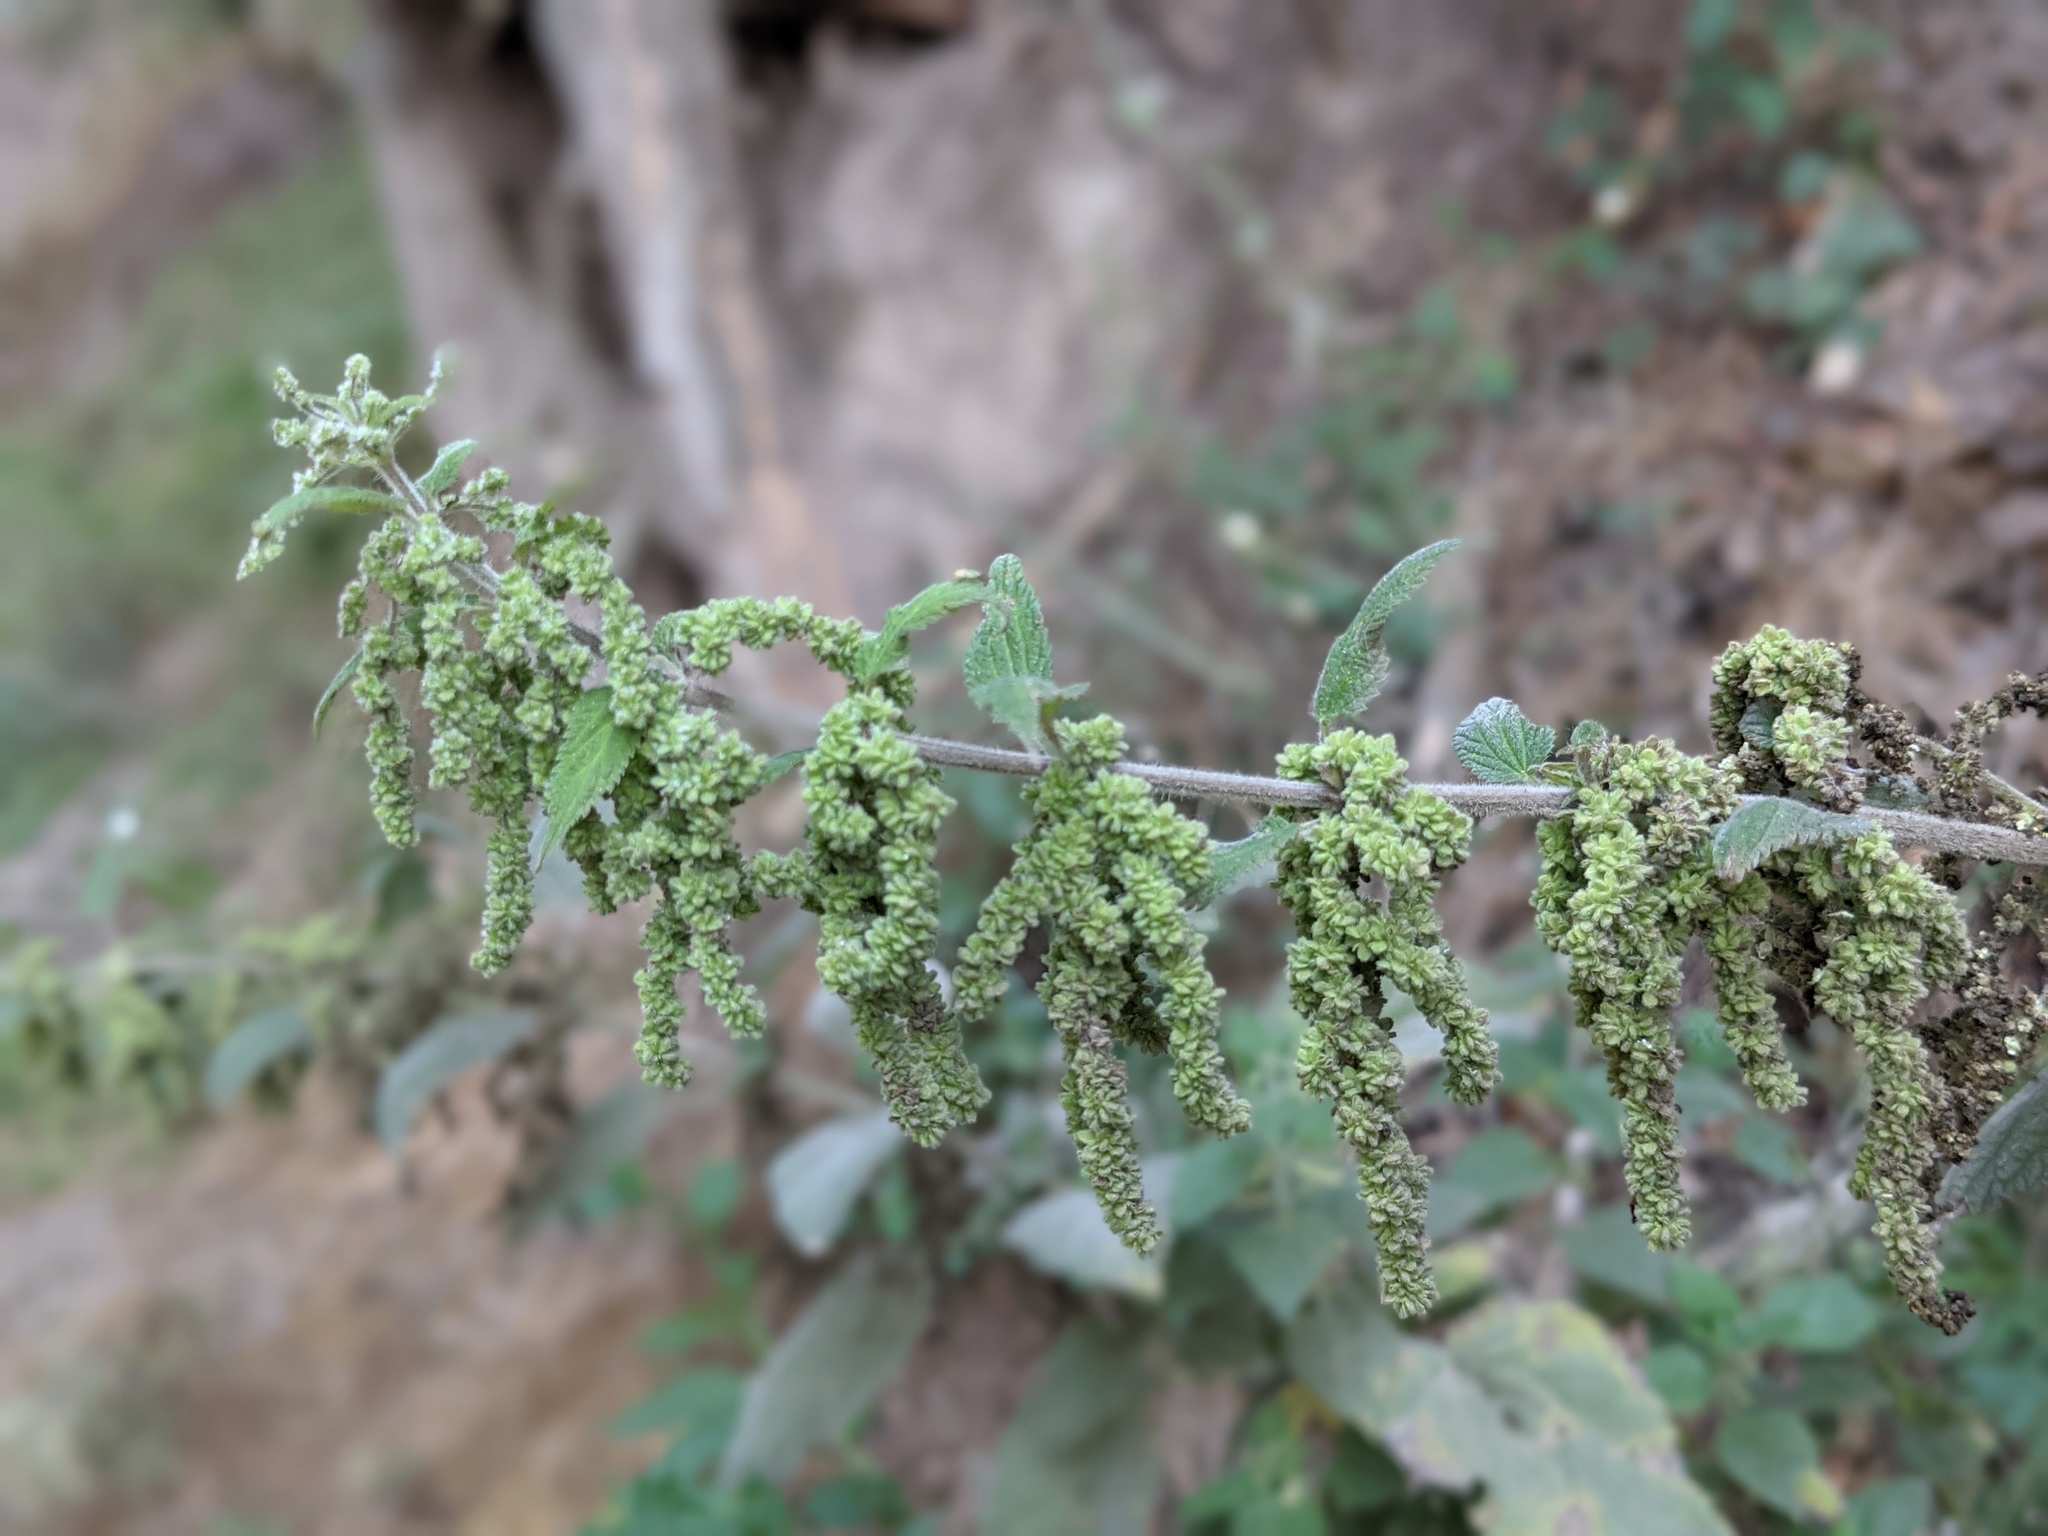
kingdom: Plantae
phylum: Tracheophyta
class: Magnoliopsida
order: Rosales
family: Urticaceae
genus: Urtica
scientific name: Urtica dioica
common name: Common nettle
